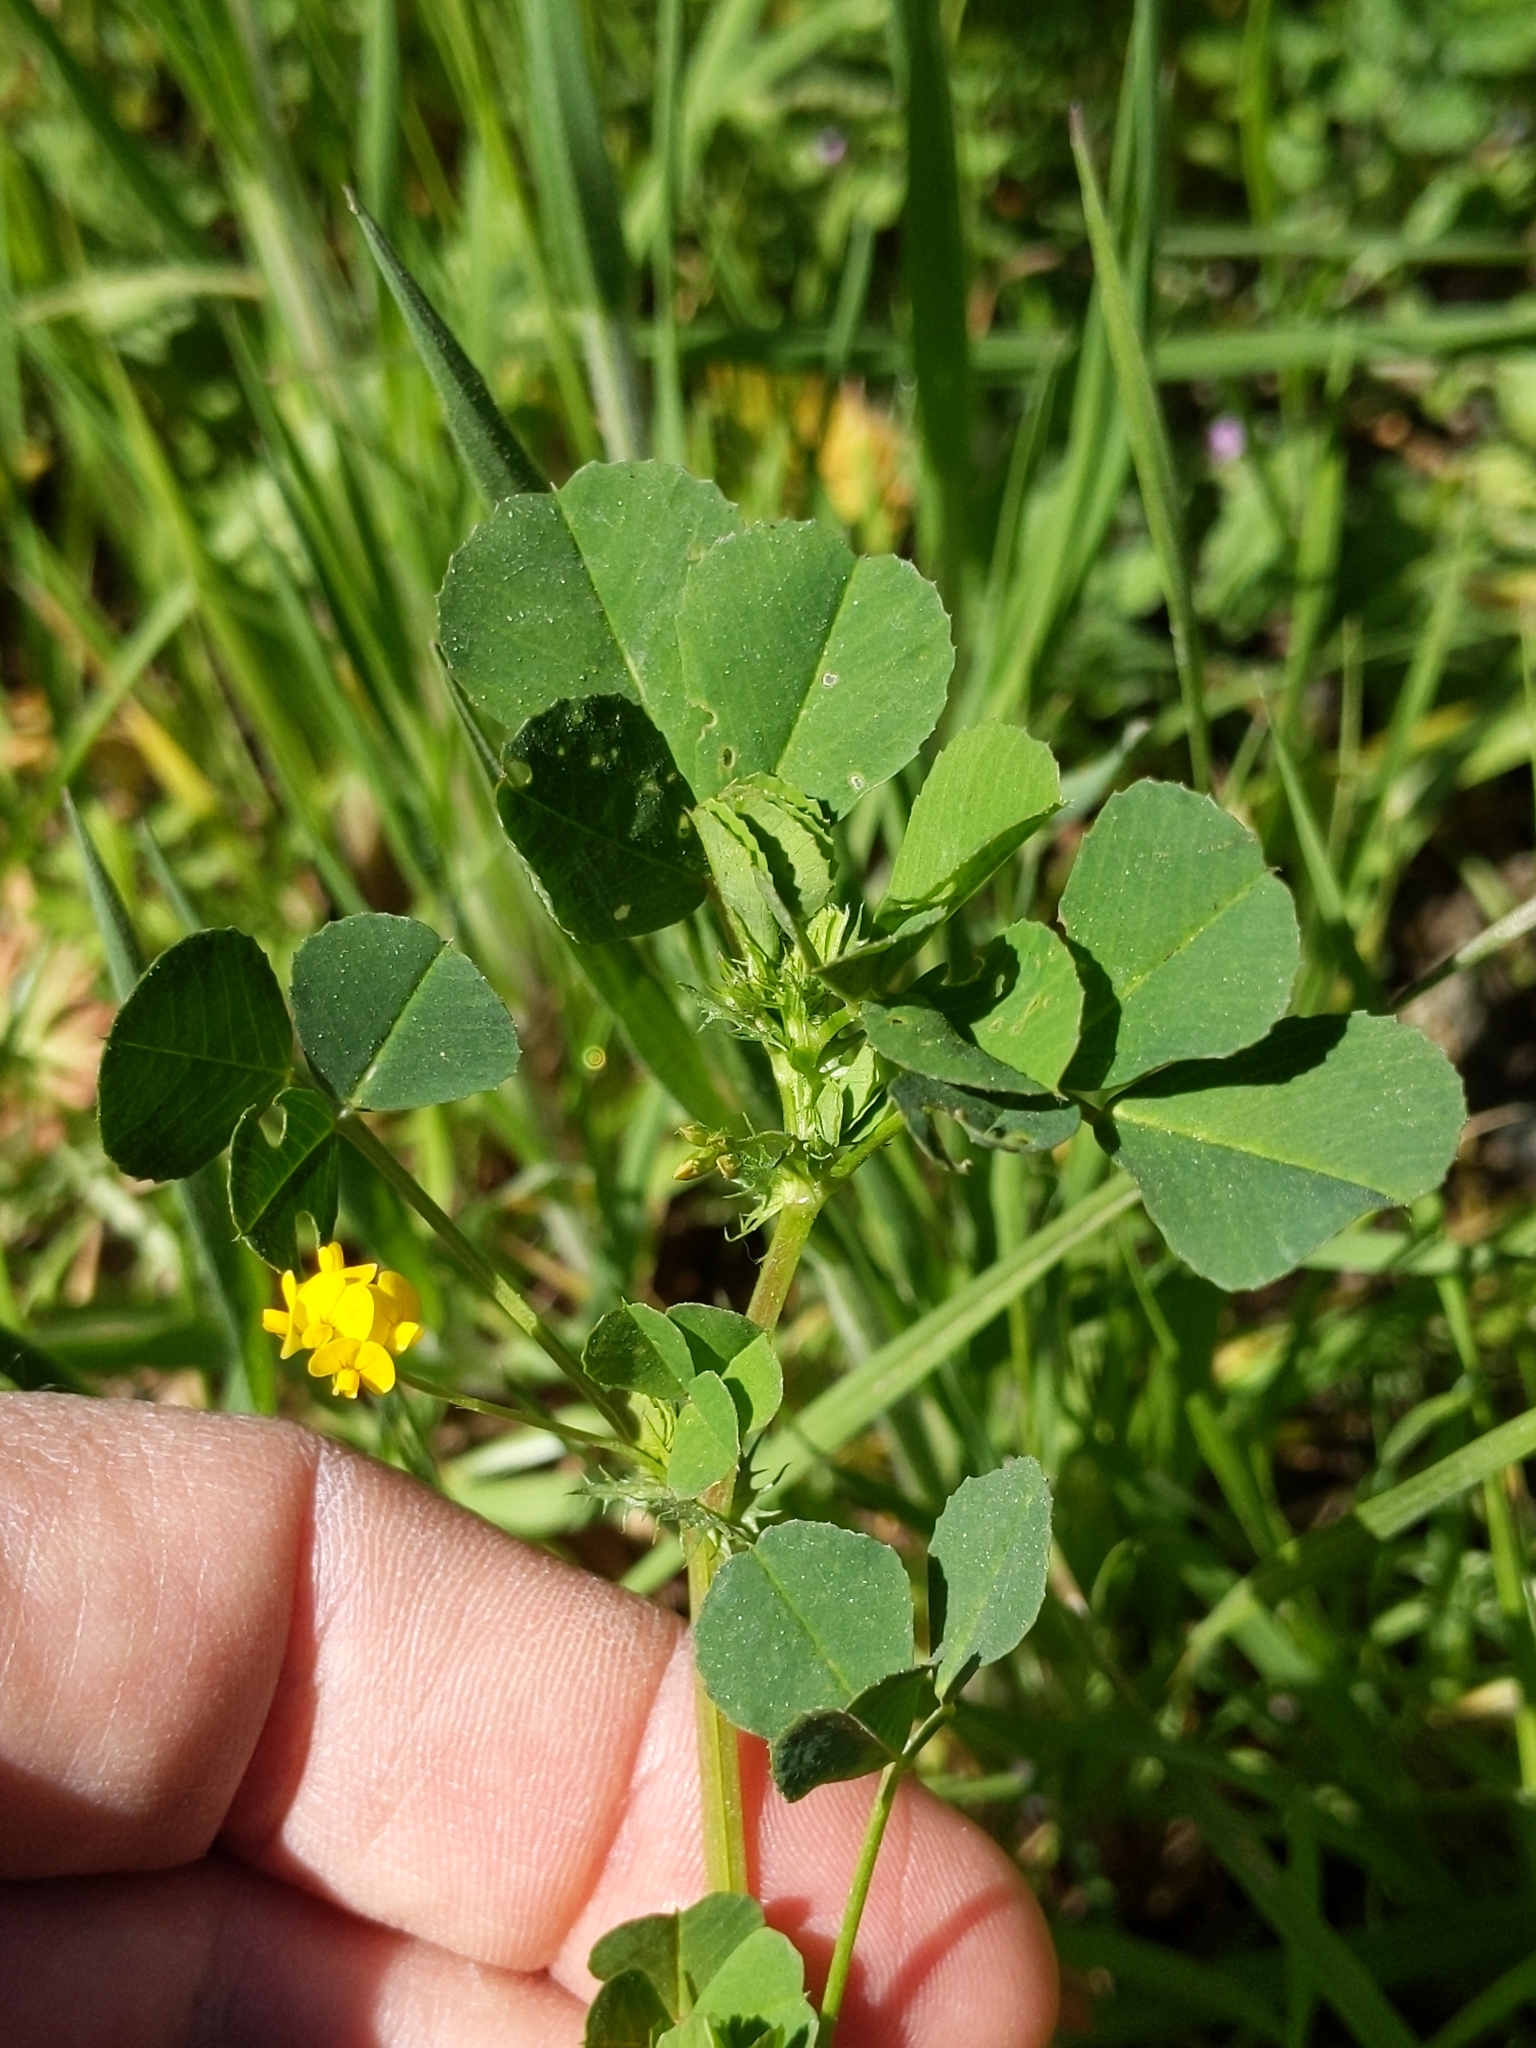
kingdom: Plantae
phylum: Tracheophyta
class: Magnoliopsida
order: Fabales
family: Fabaceae
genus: Medicago
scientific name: Medicago polymorpha
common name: Burclover
